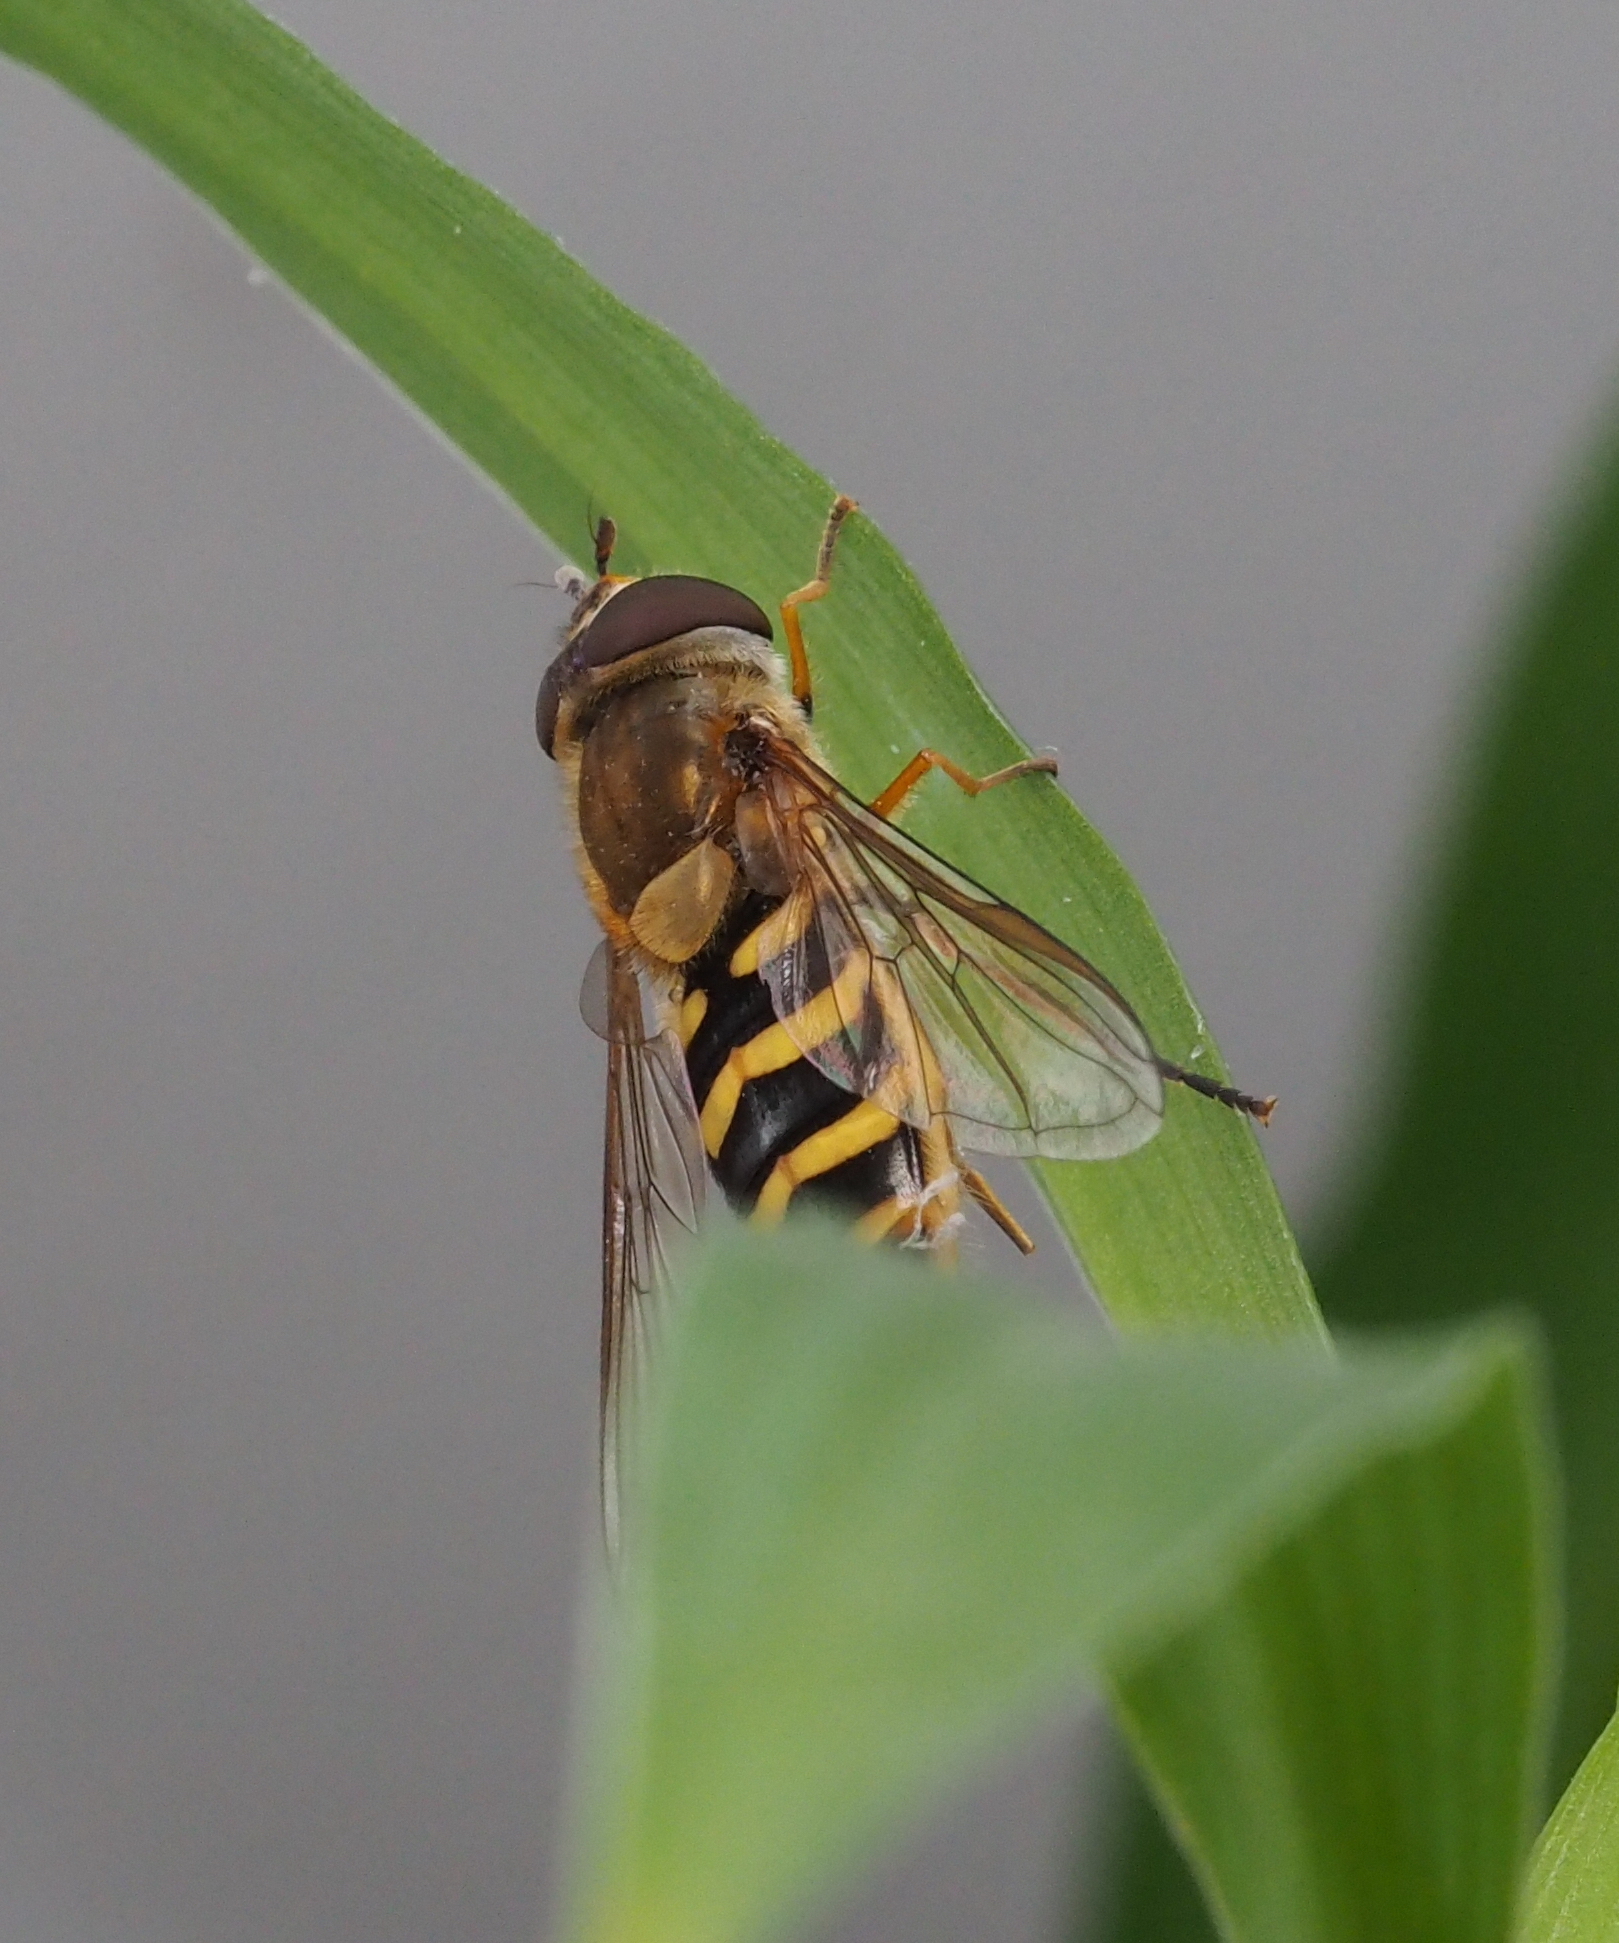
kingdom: Animalia
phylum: Arthropoda
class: Insecta
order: Diptera
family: Syrphidae
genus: Syrphus
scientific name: Syrphus vitripennis
